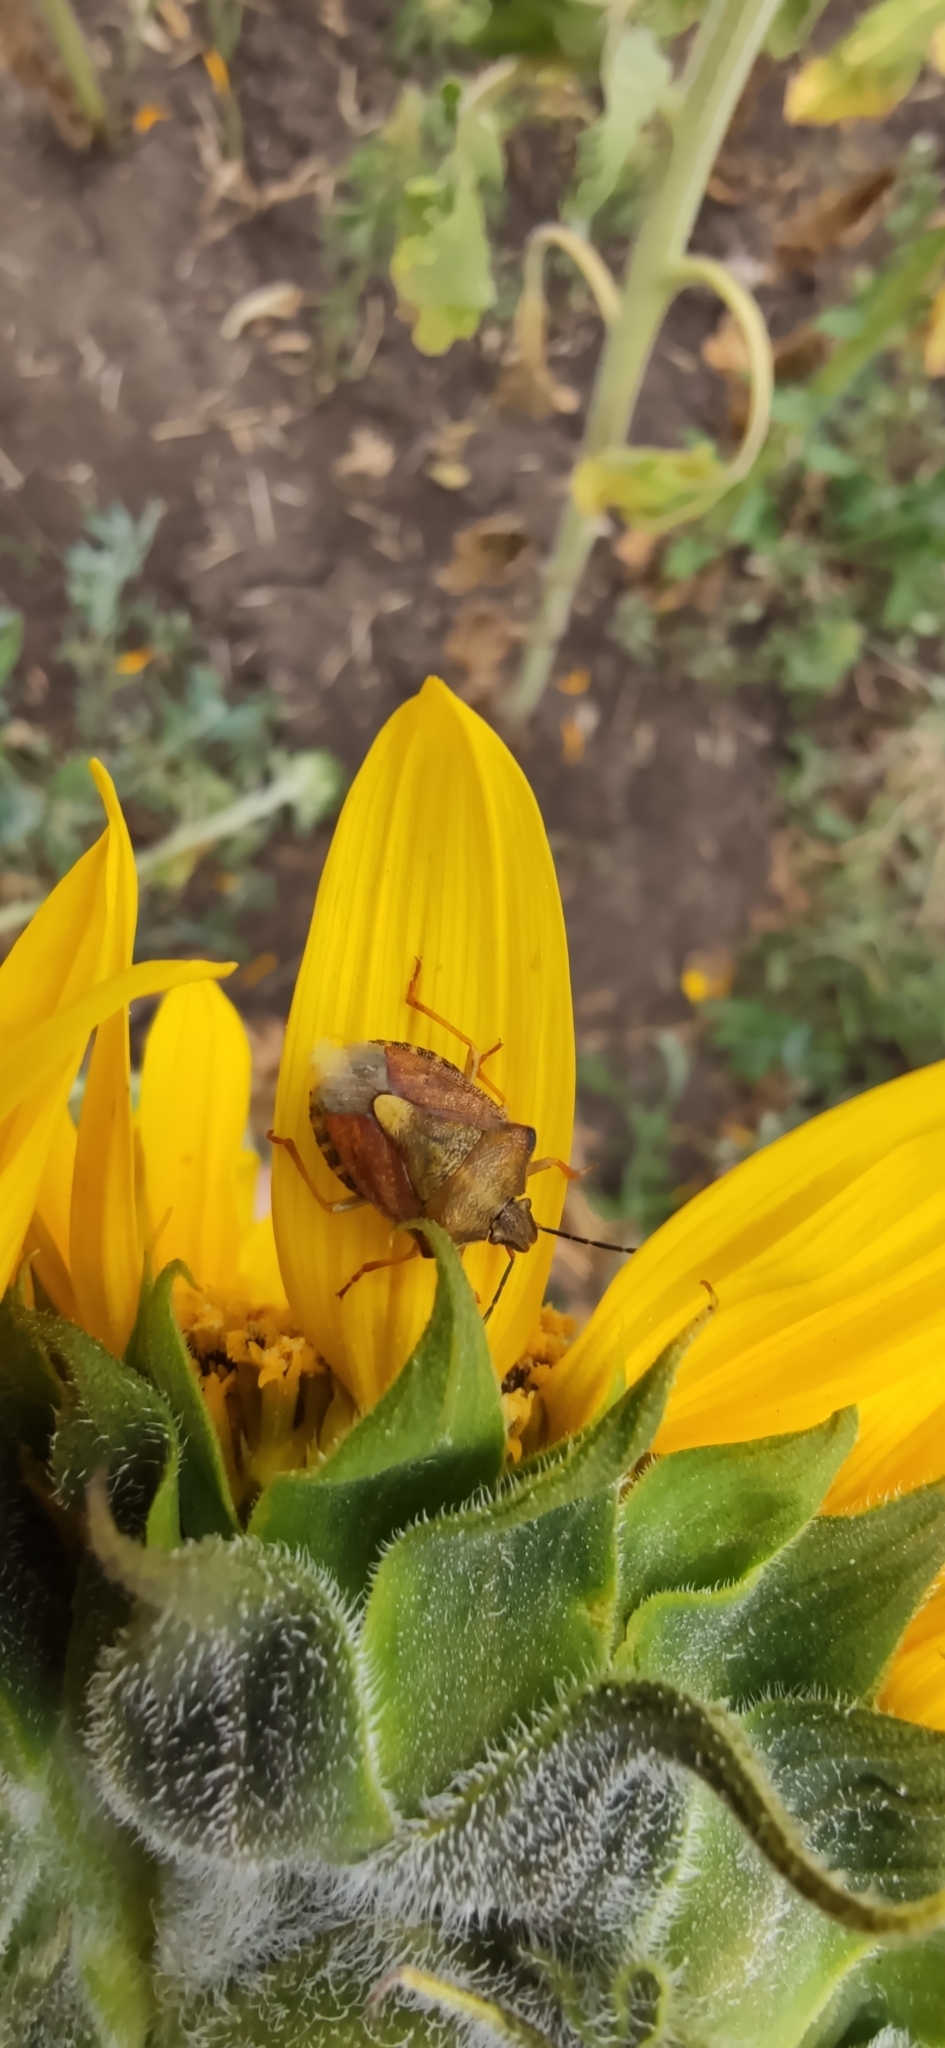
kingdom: Animalia
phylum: Arthropoda
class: Insecta
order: Hemiptera
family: Pentatomidae
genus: Carpocoris
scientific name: Carpocoris purpureipennis
